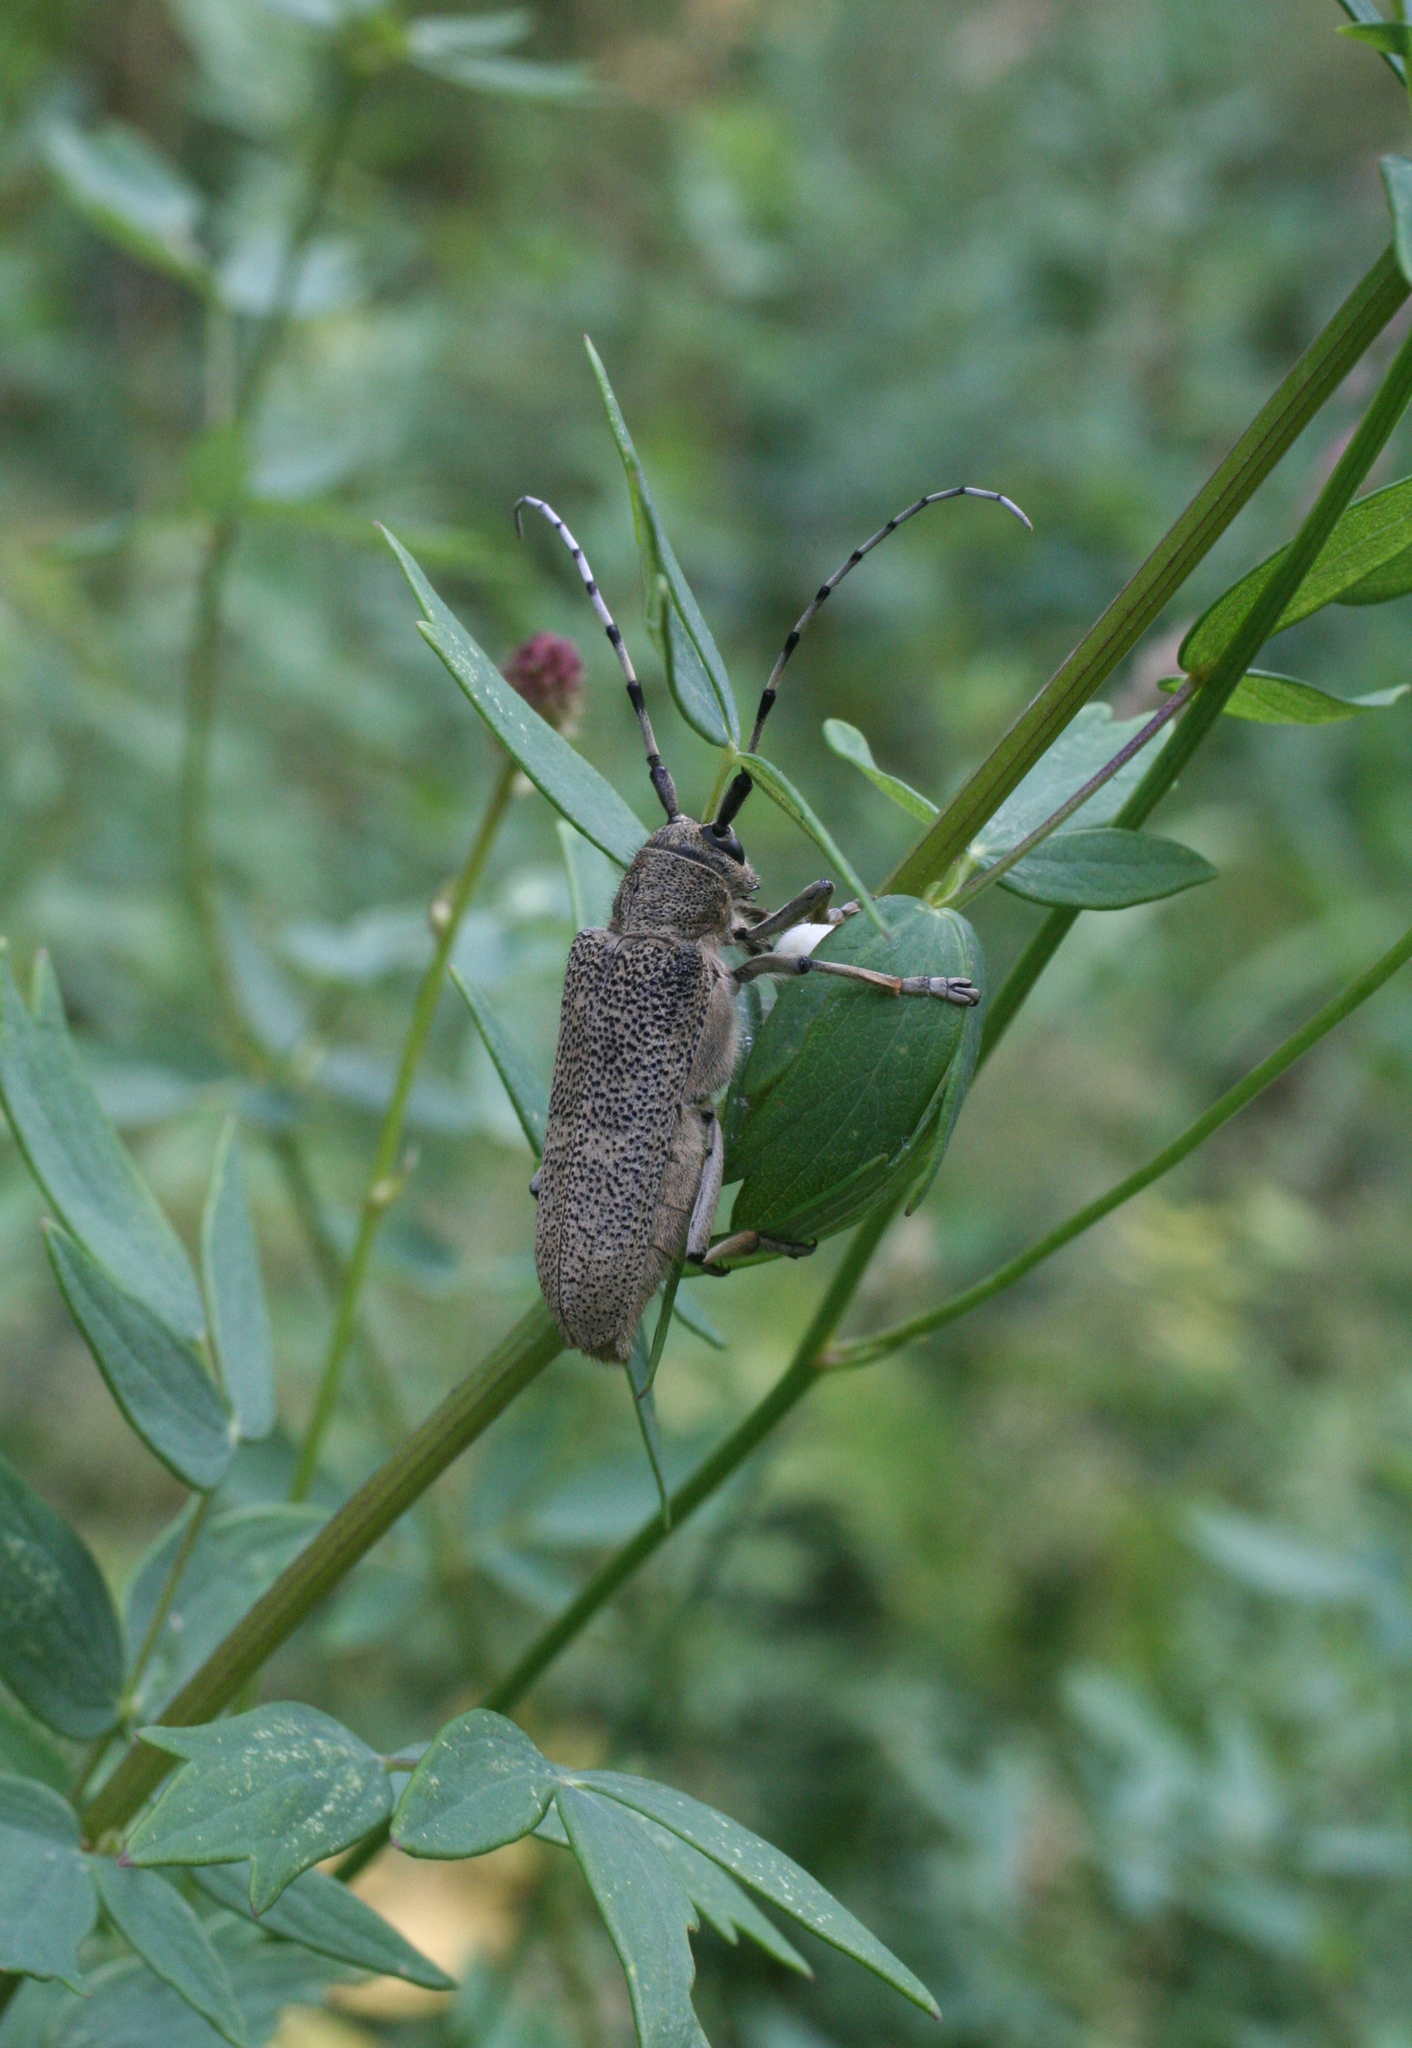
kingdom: Animalia
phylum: Arthropoda
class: Insecta
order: Coleoptera
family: Cerambycidae
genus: Saperda
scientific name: Saperda carcharias
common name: Poplar borer
